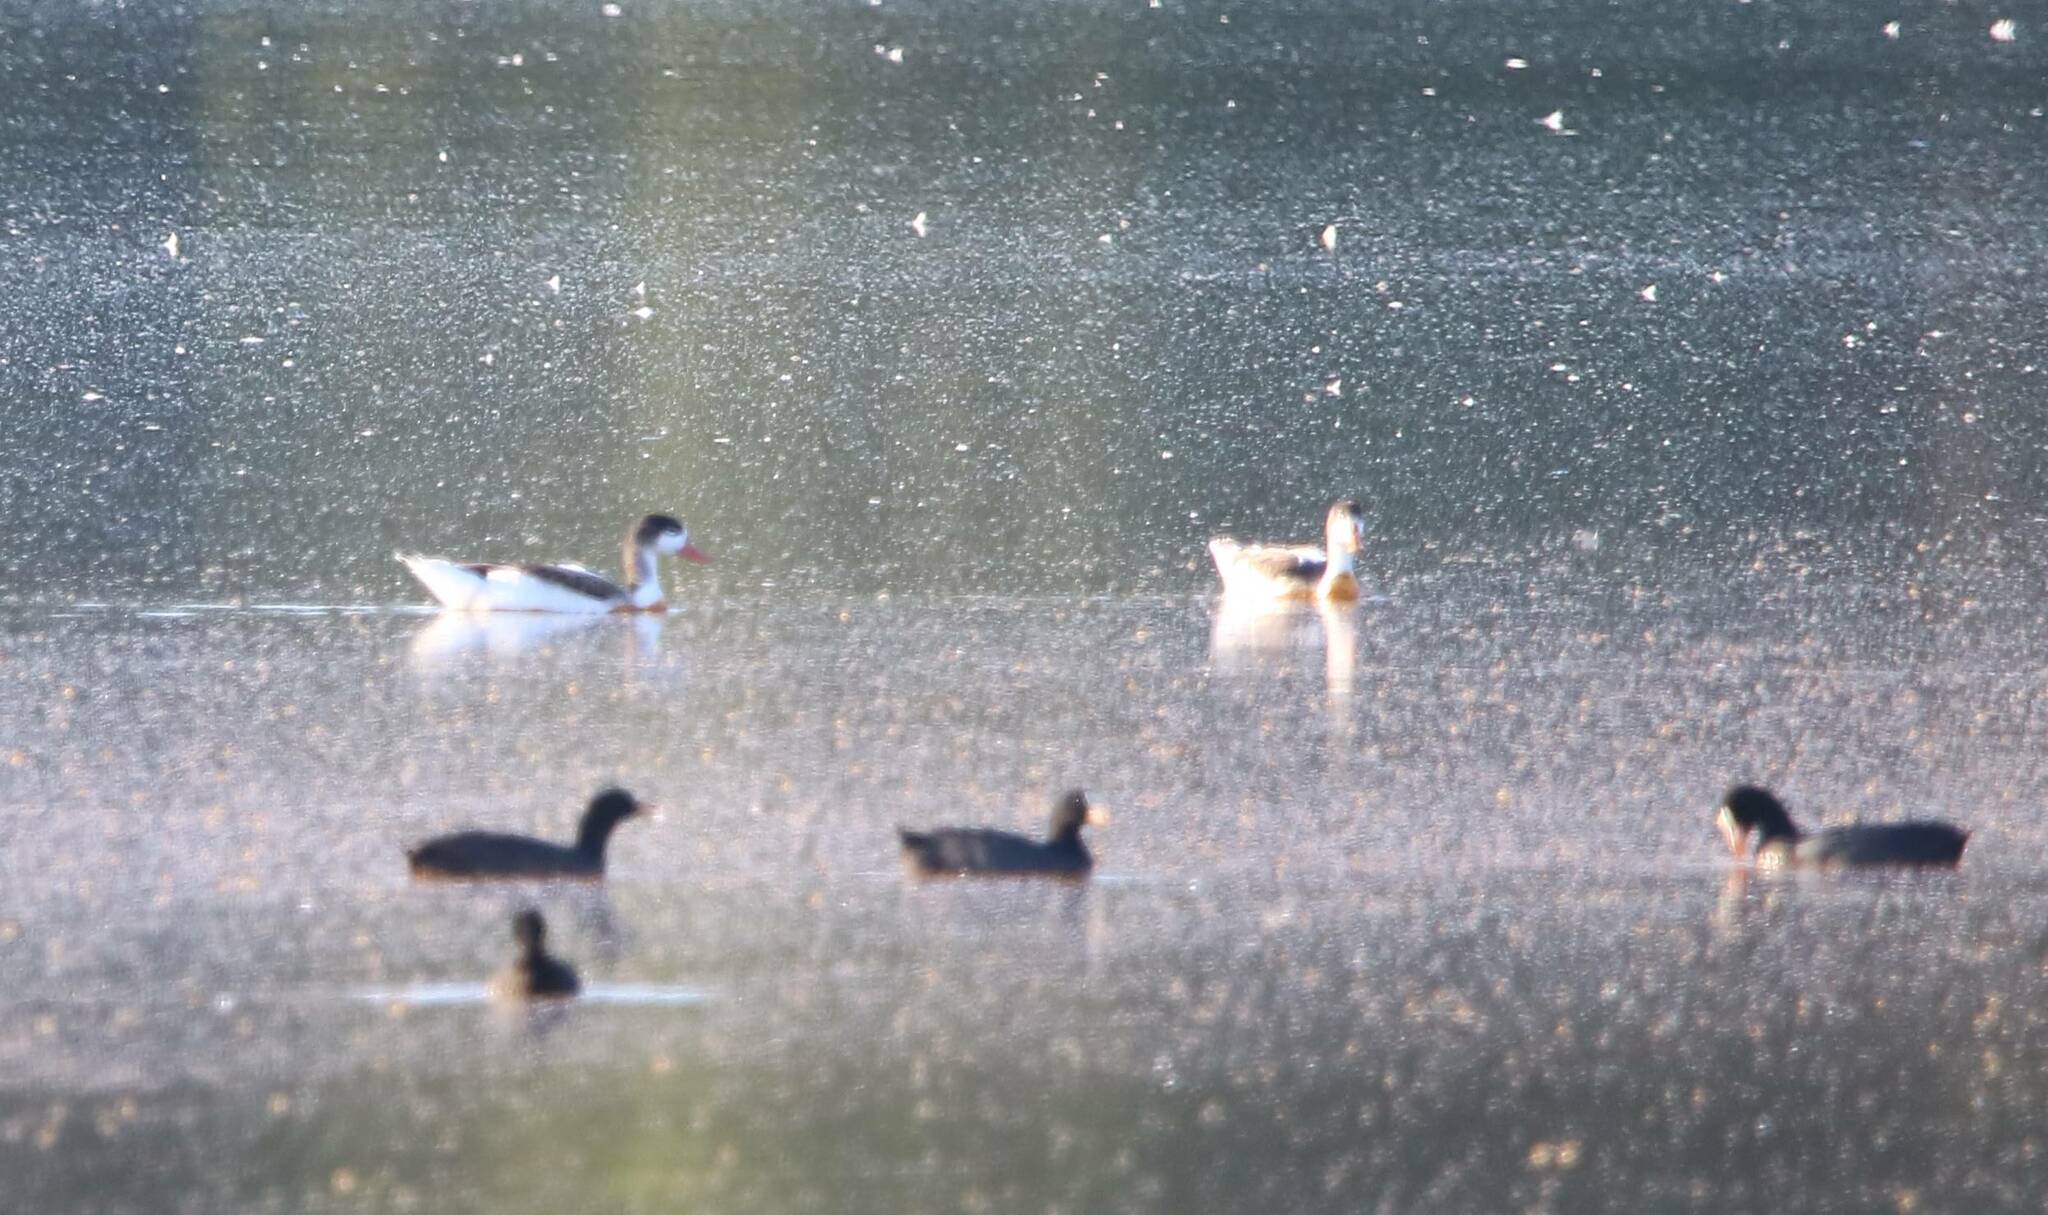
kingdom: Animalia
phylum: Chordata
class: Aves
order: Anseriformes
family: Anatidae
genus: Tadorna
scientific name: Tadorna tadorna
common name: Common shelduck
